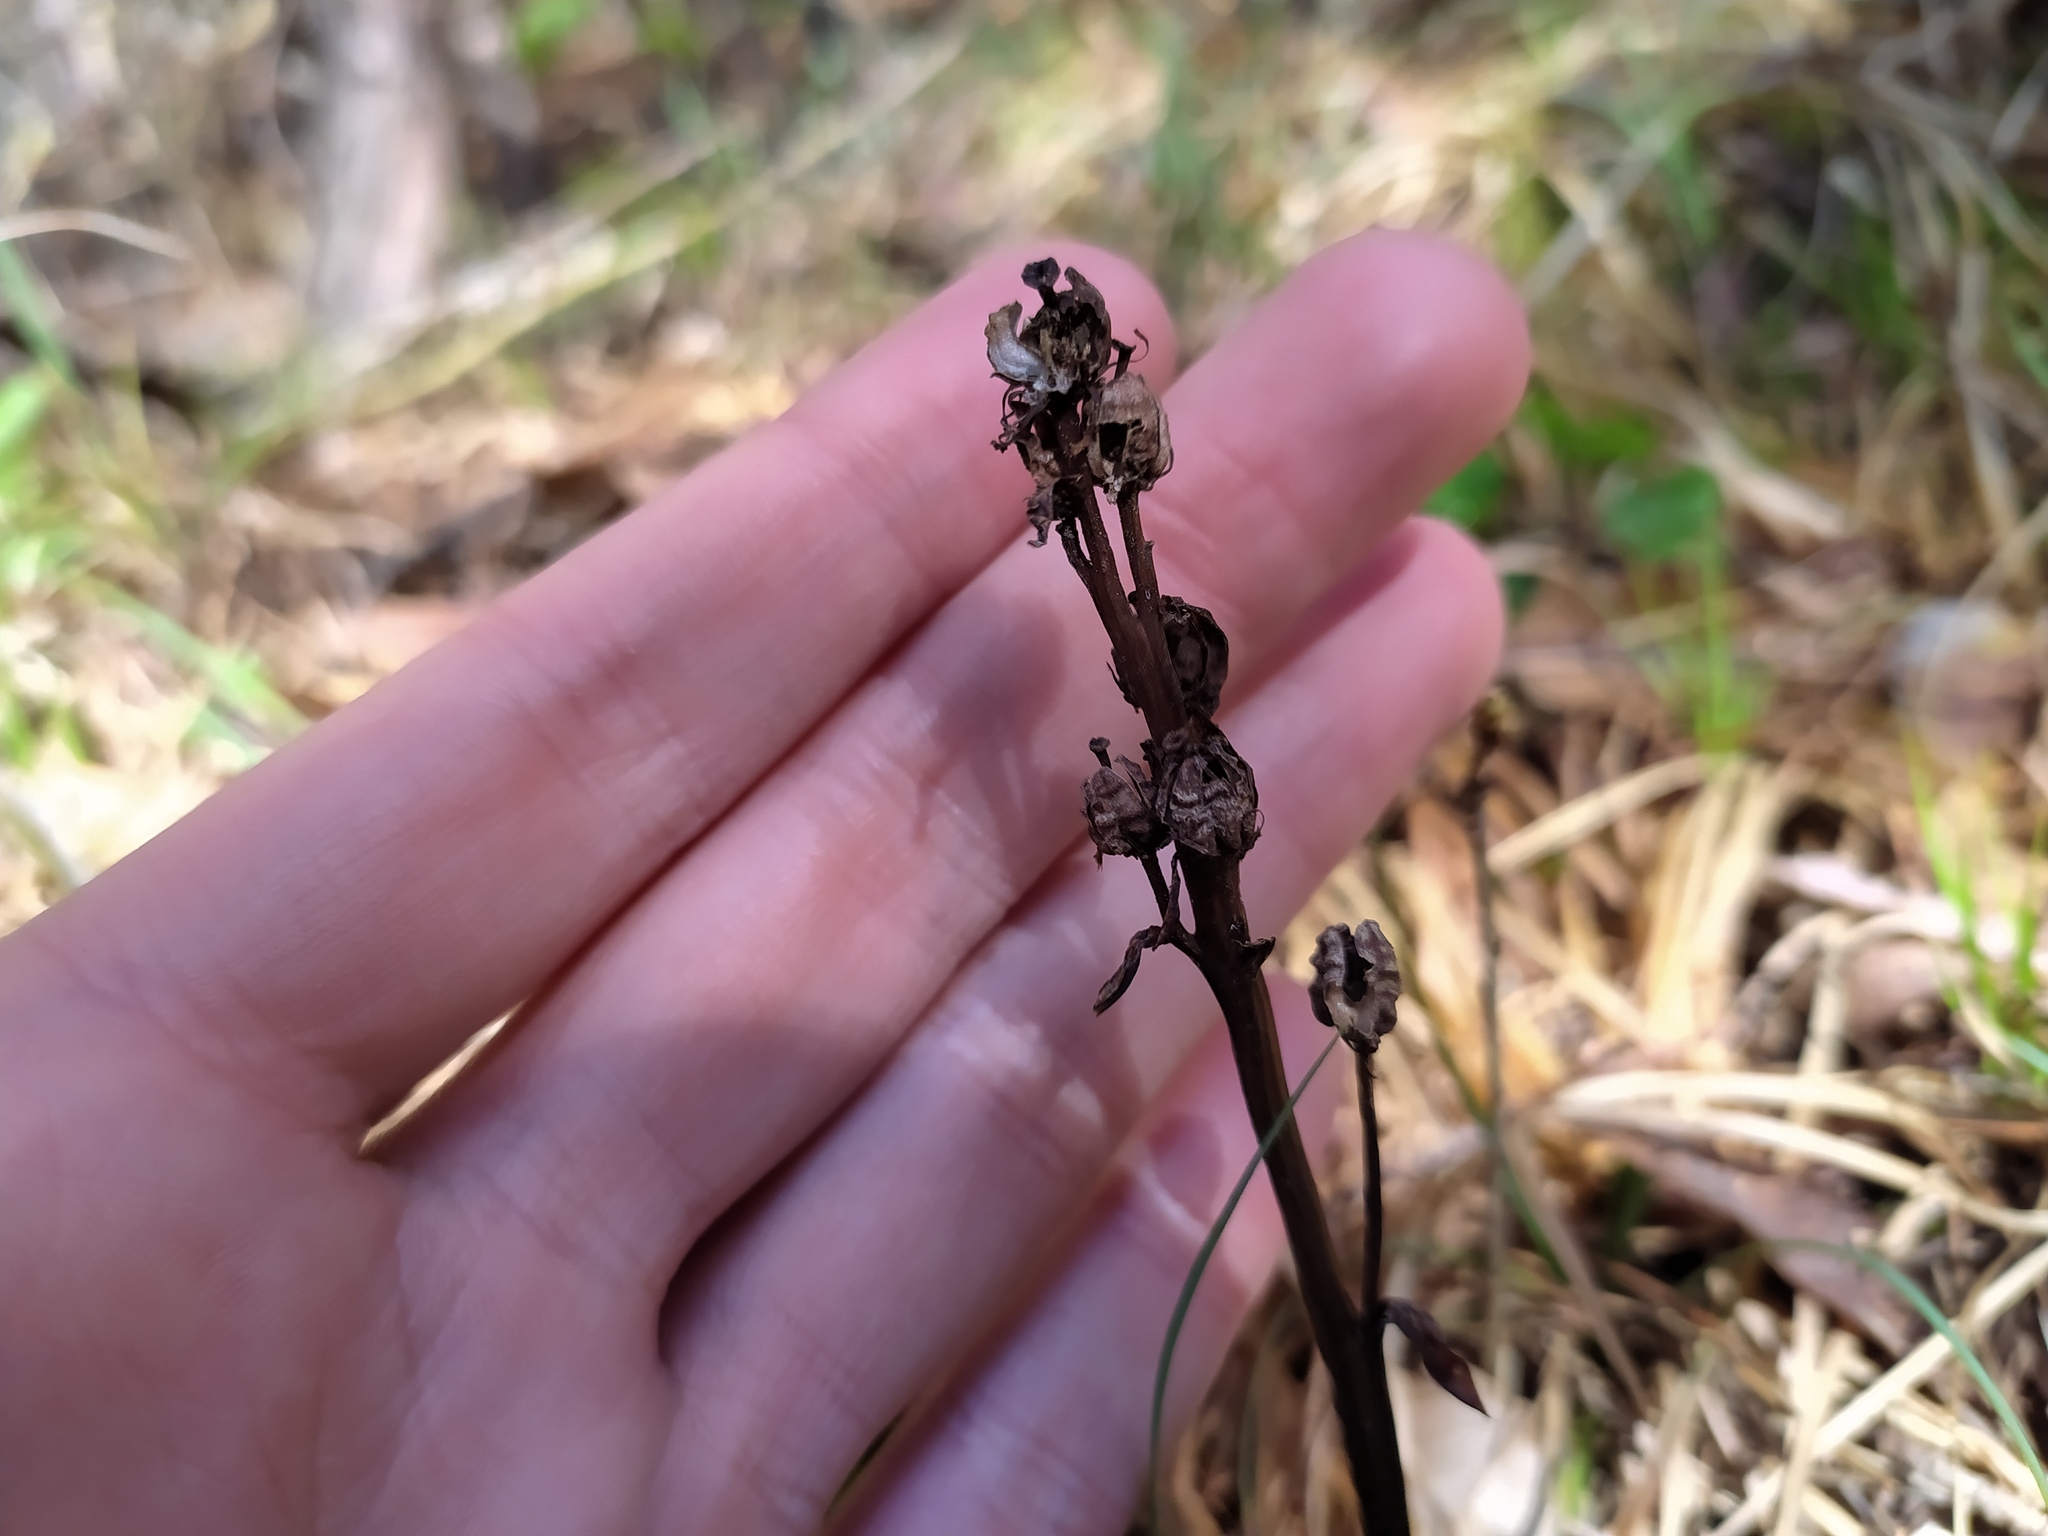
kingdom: Plantae
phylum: Tracheophyta
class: Magnoliopsida
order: Ericales
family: Ericaceae
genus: Hypopitys
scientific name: Hypopitys monotropa
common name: Yellow bird's-nest
